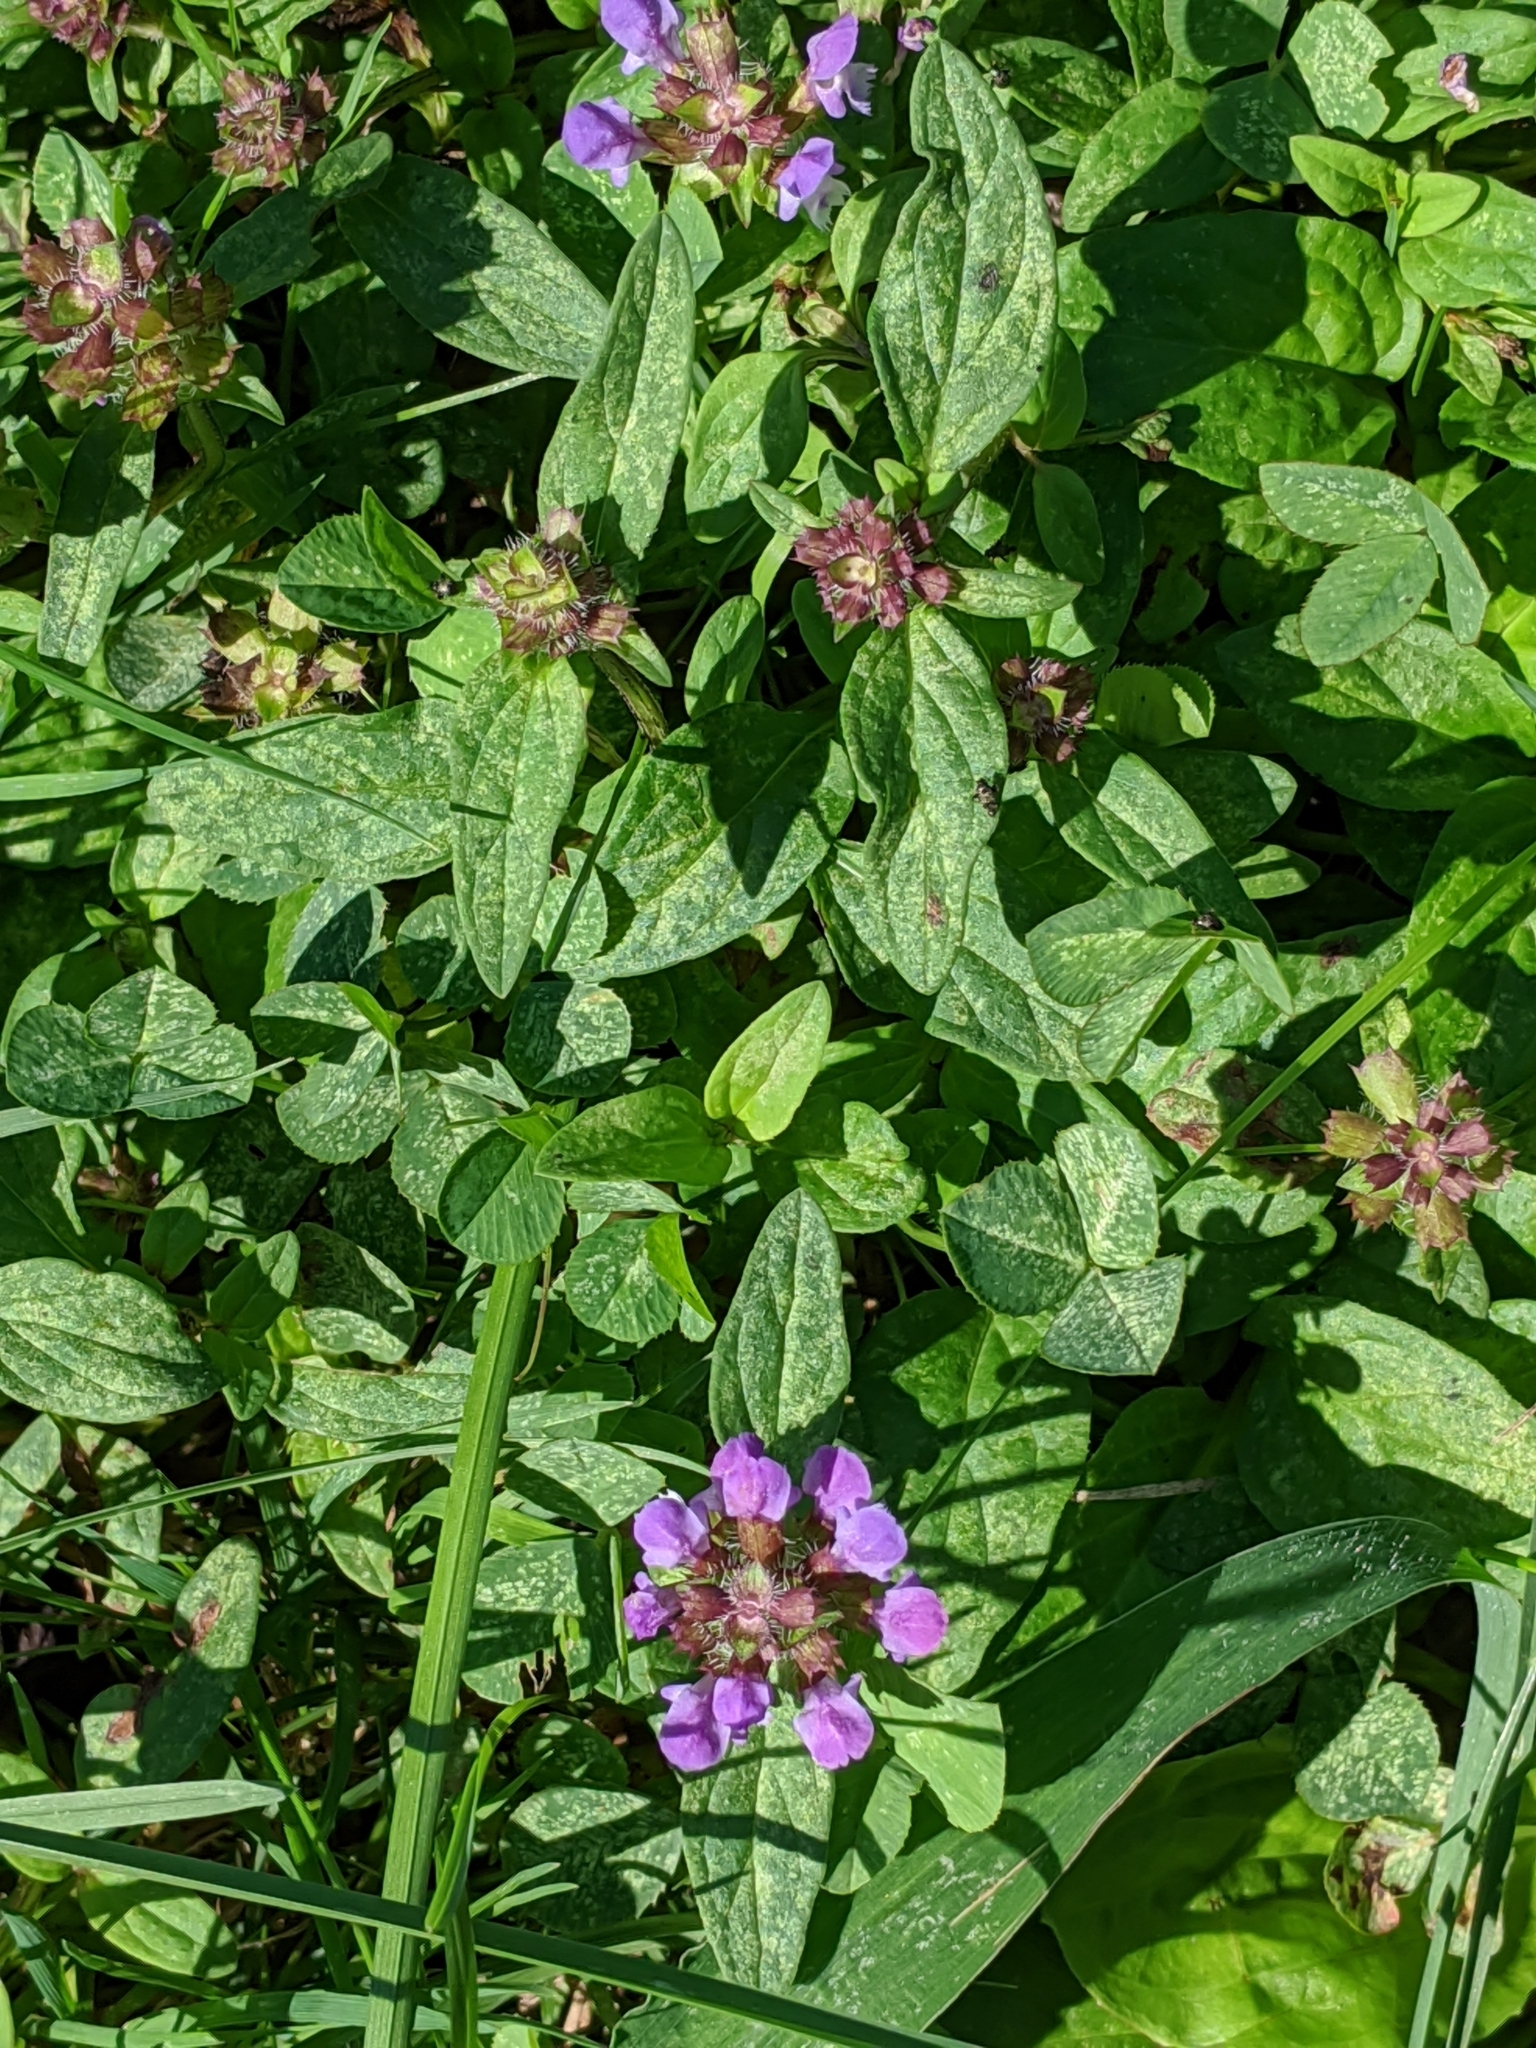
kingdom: Plantae
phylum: Tracheophyta
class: Magnoliopsida
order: Lamiales
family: Lamiaceae
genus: Prunella
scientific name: Prunella vulgaris
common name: Heal-all
